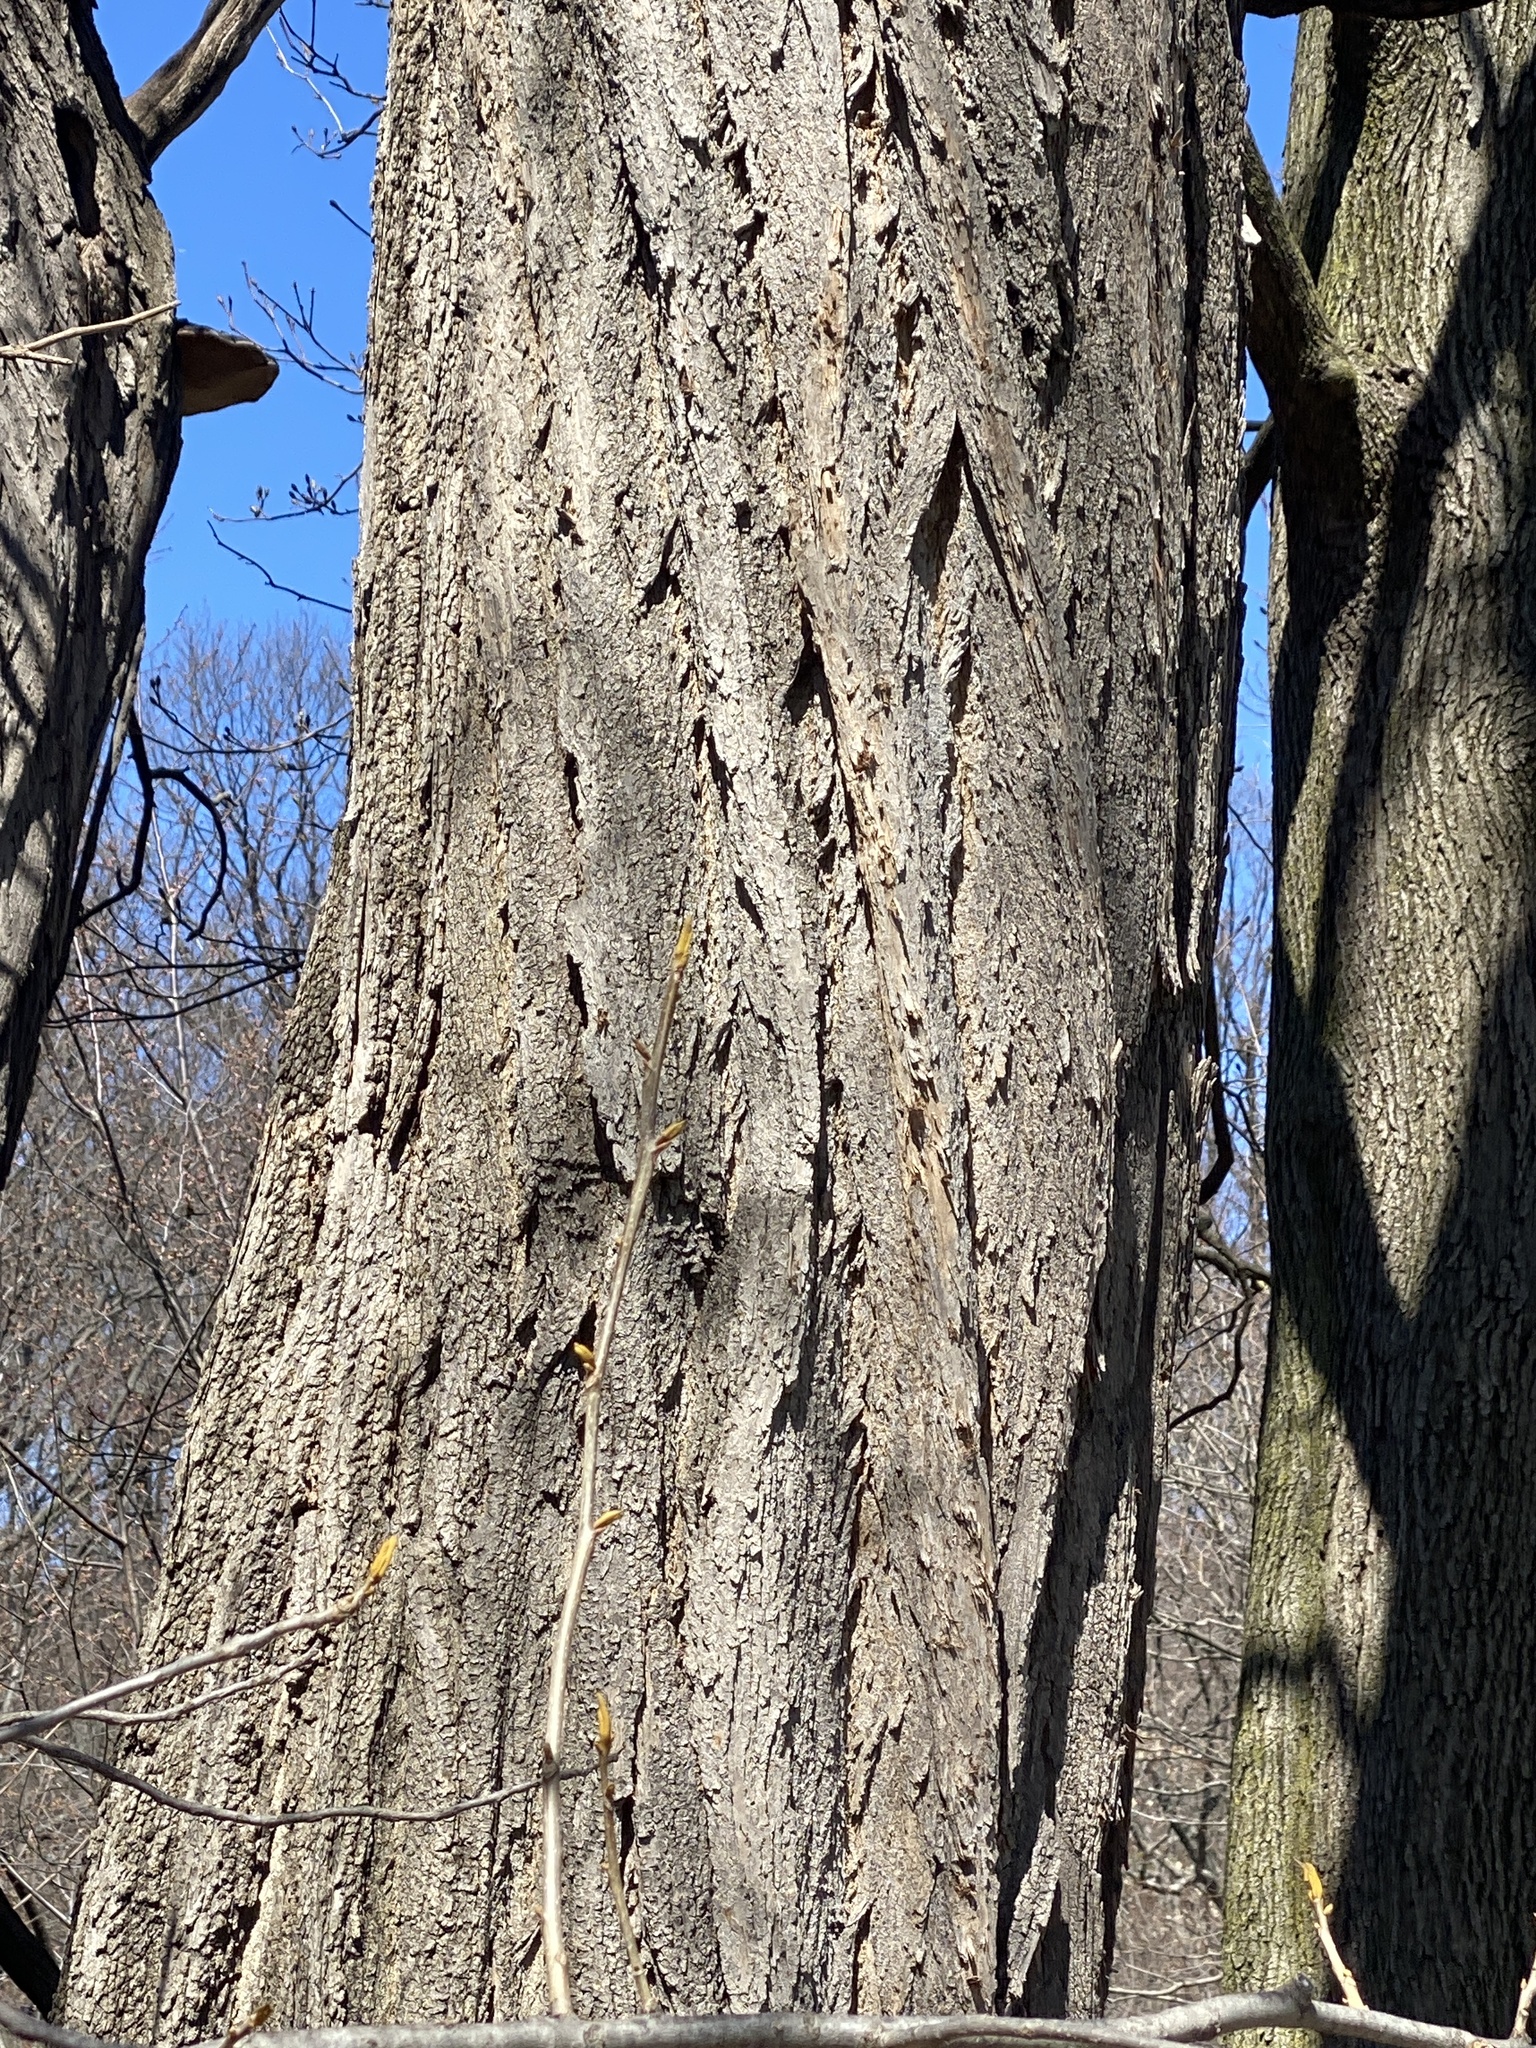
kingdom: Plantae
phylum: Tracheophyta
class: Magnoliopsida
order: Fabales
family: Fabaceae
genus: Robinia
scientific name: Robinia pseudoacacia
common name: Black locust
